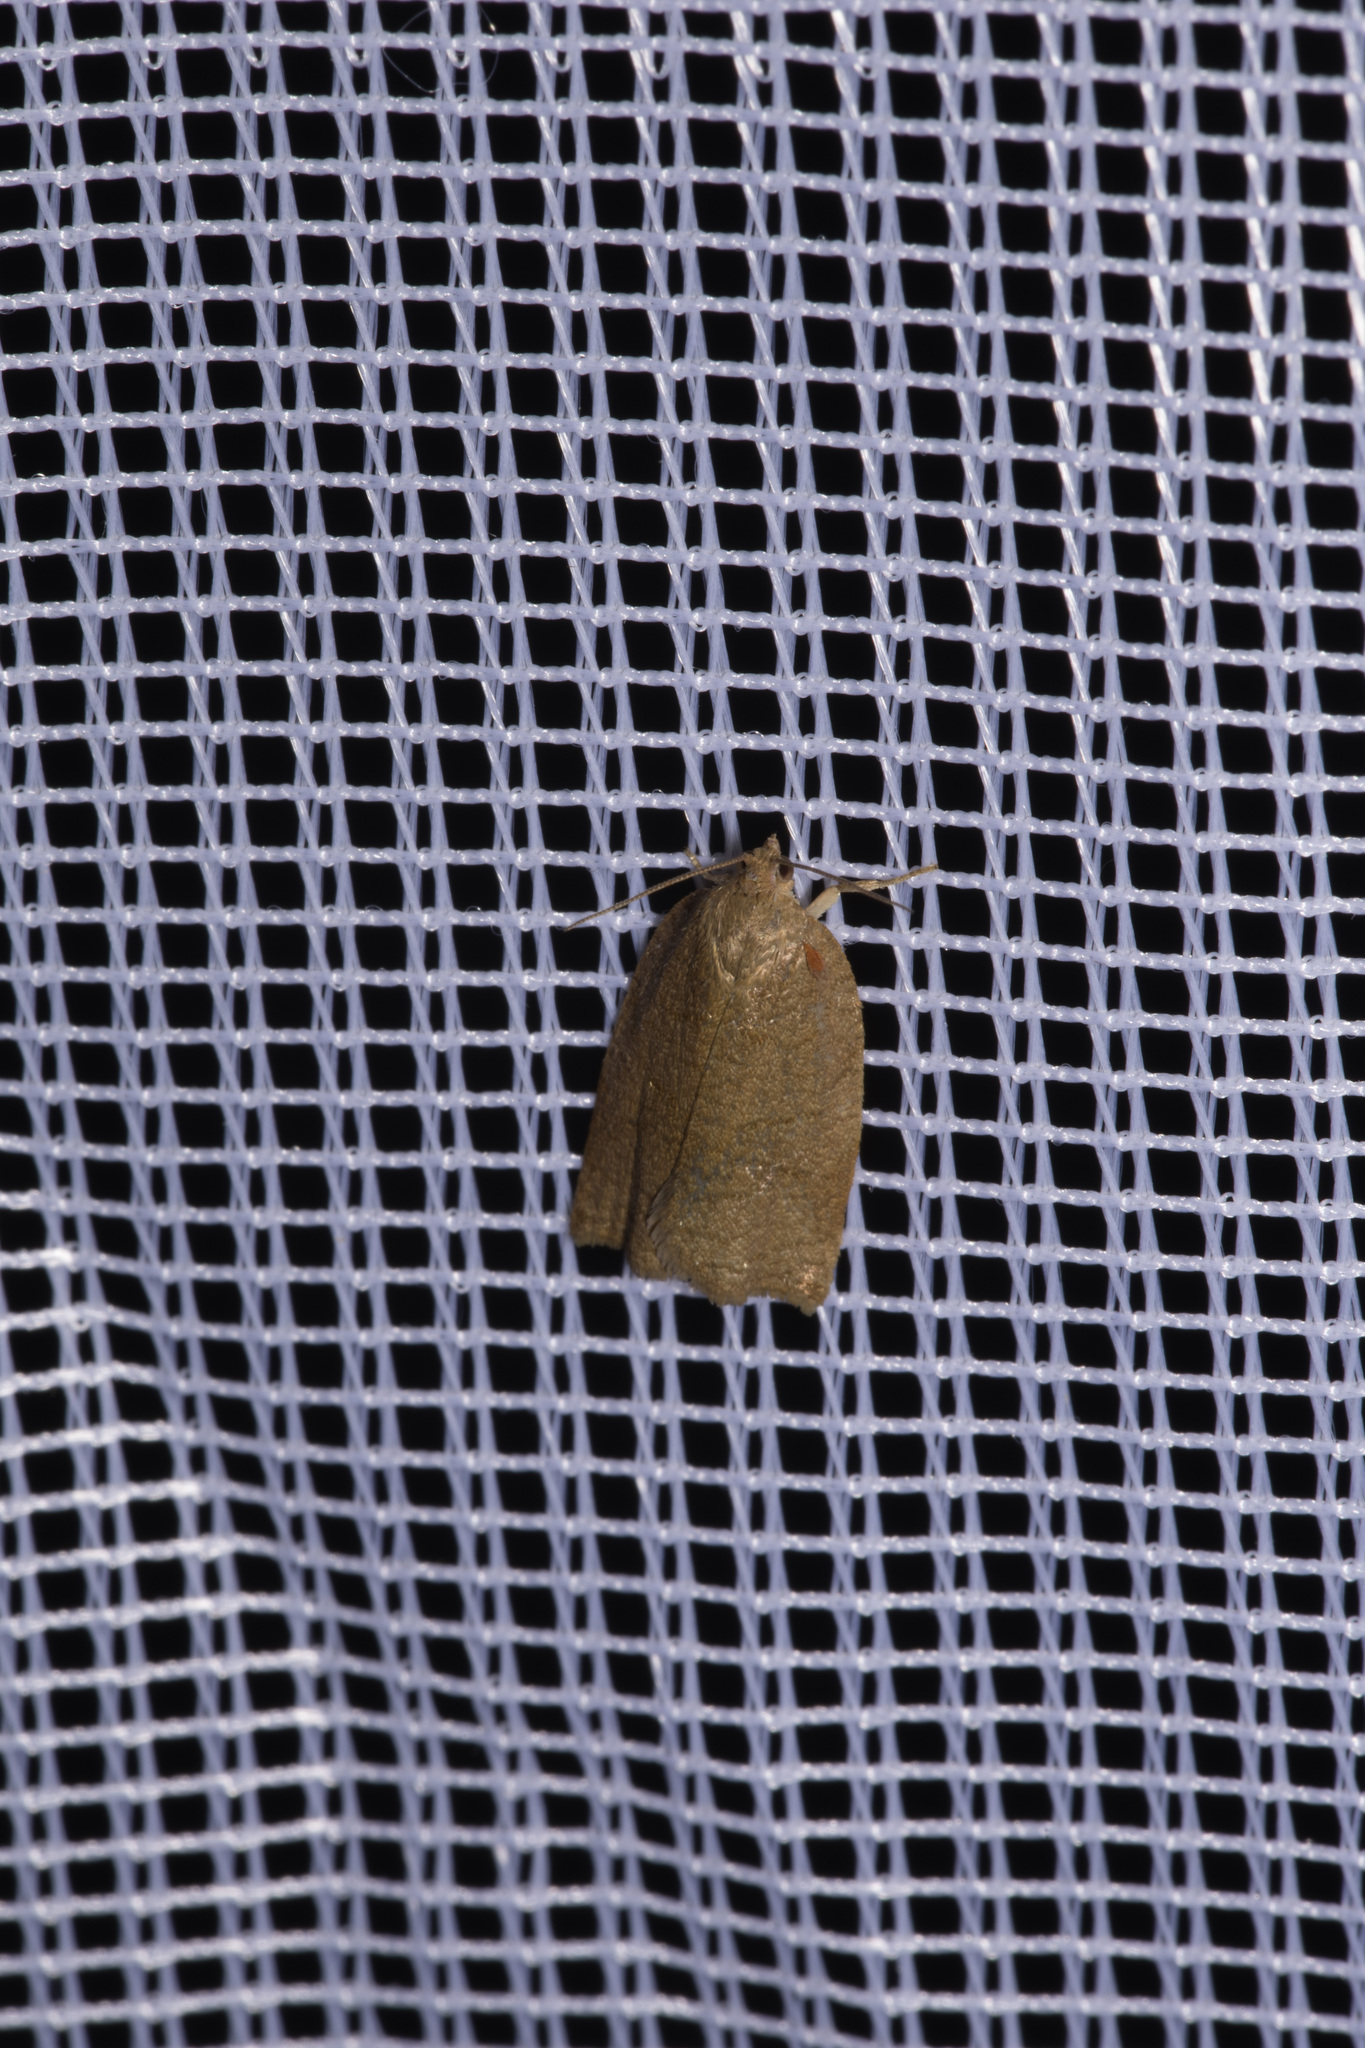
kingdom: Animalia
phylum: Arthropoda
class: Insecta
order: Lepidoptera
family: Tortricidae
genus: Archips
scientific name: Archips rosana
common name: Rose tortrix
